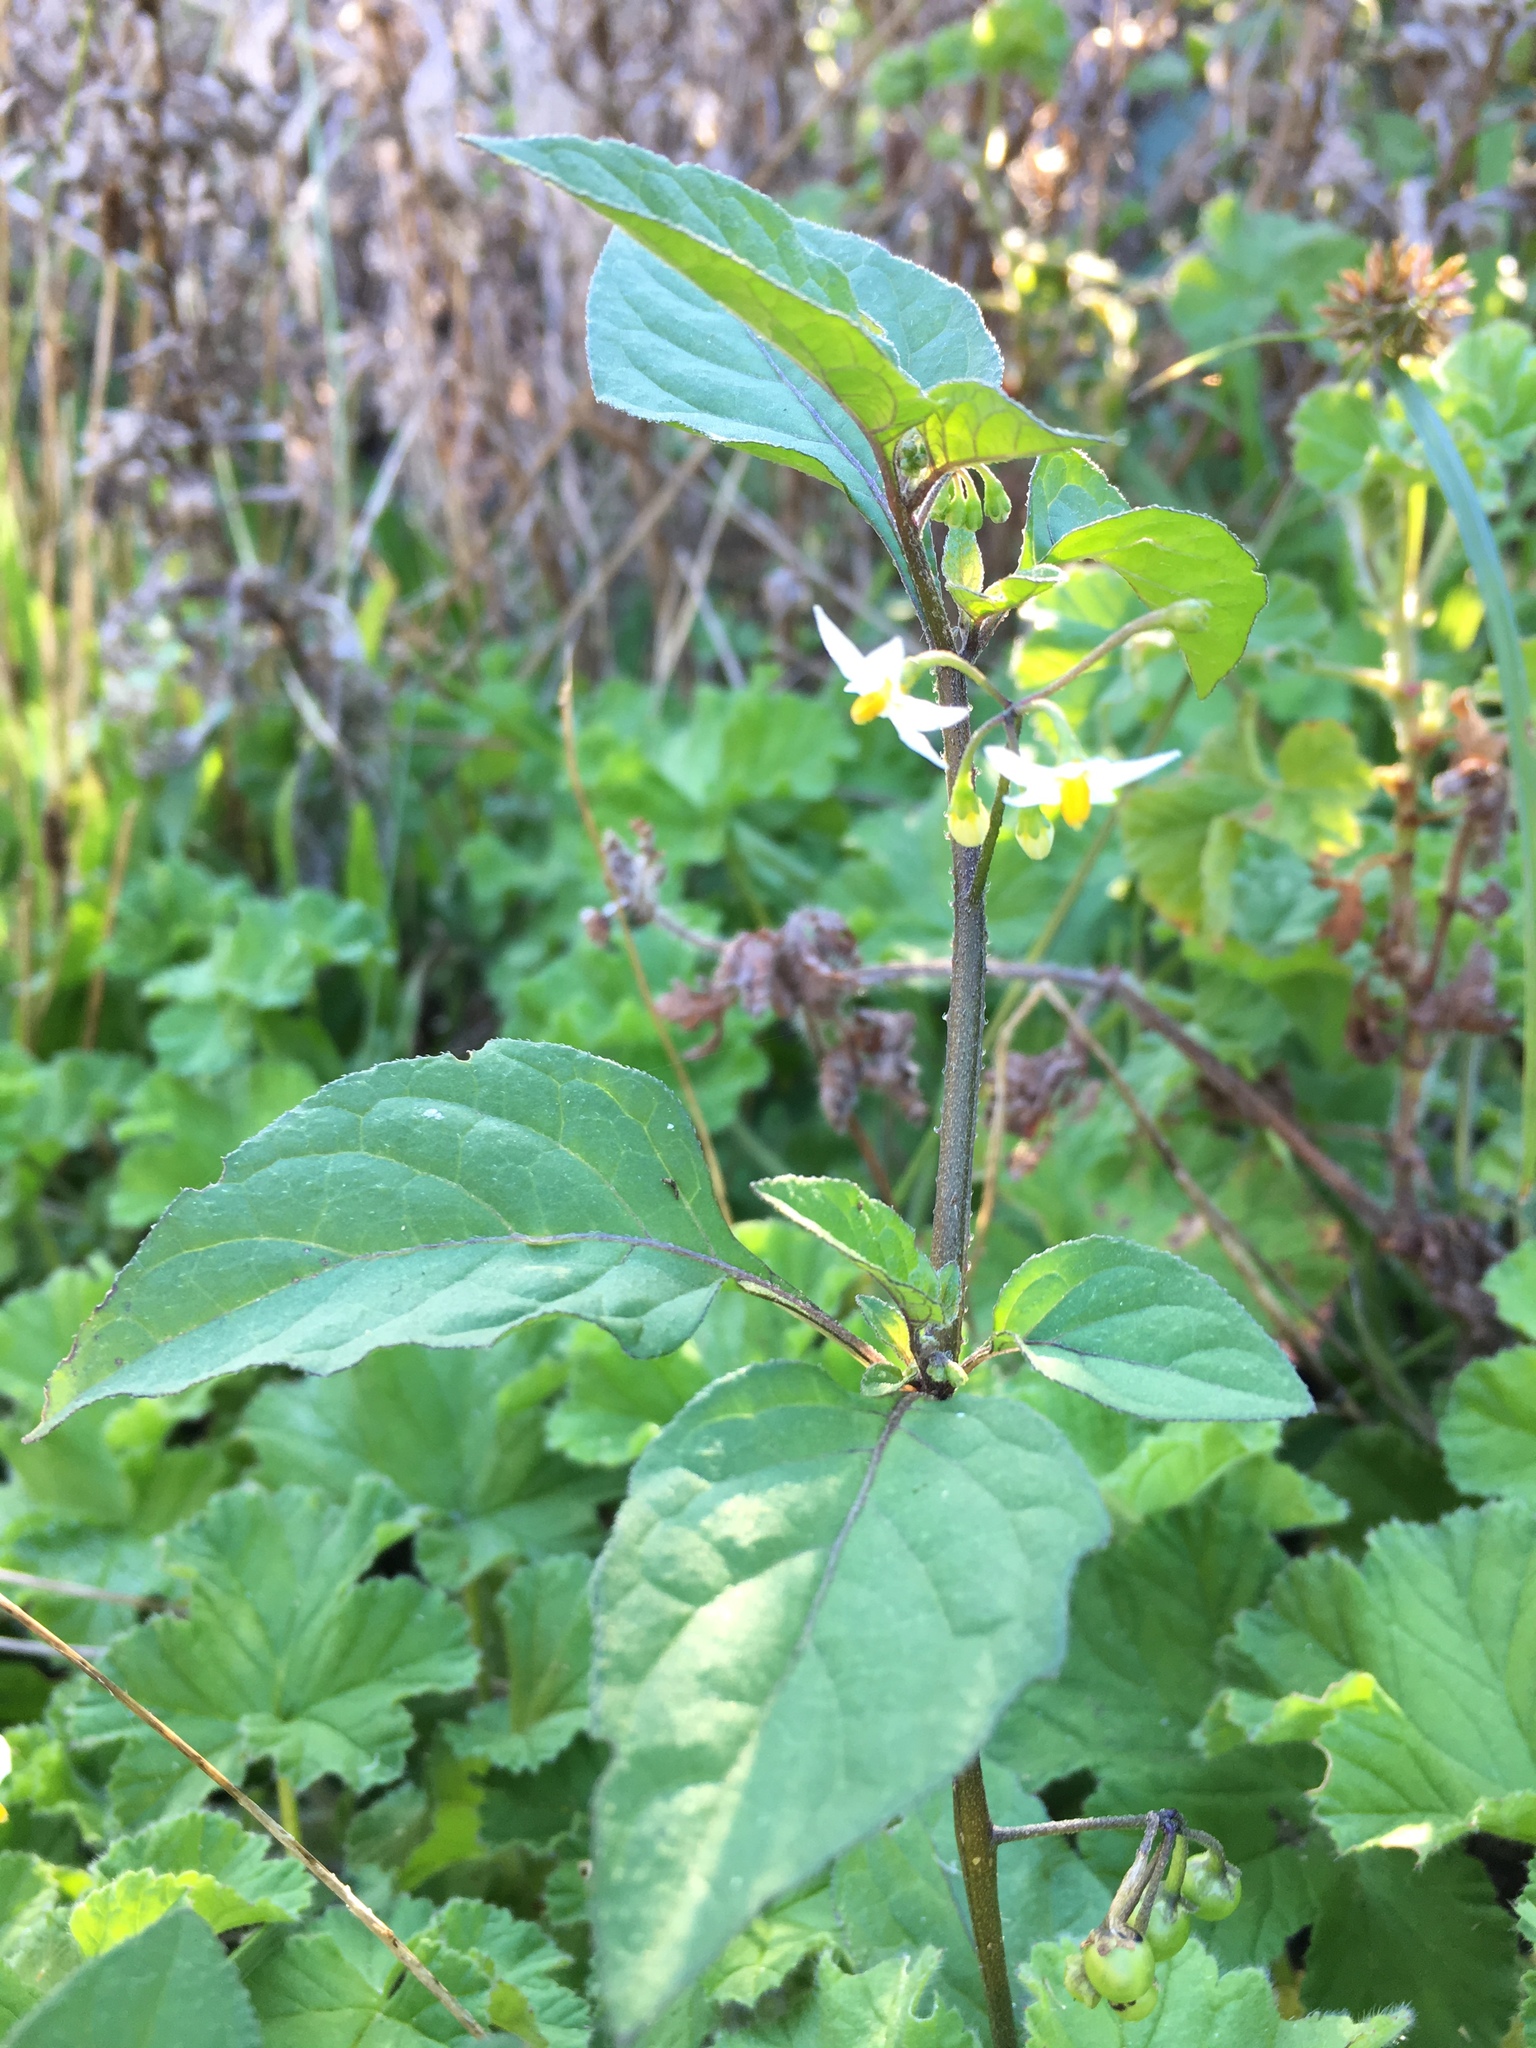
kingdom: Plantae
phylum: Tracheophyta
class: Magnoliopsida
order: Solanales
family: Solanaceae
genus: Solanum
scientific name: Solanum nigrum
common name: Black nightshade
